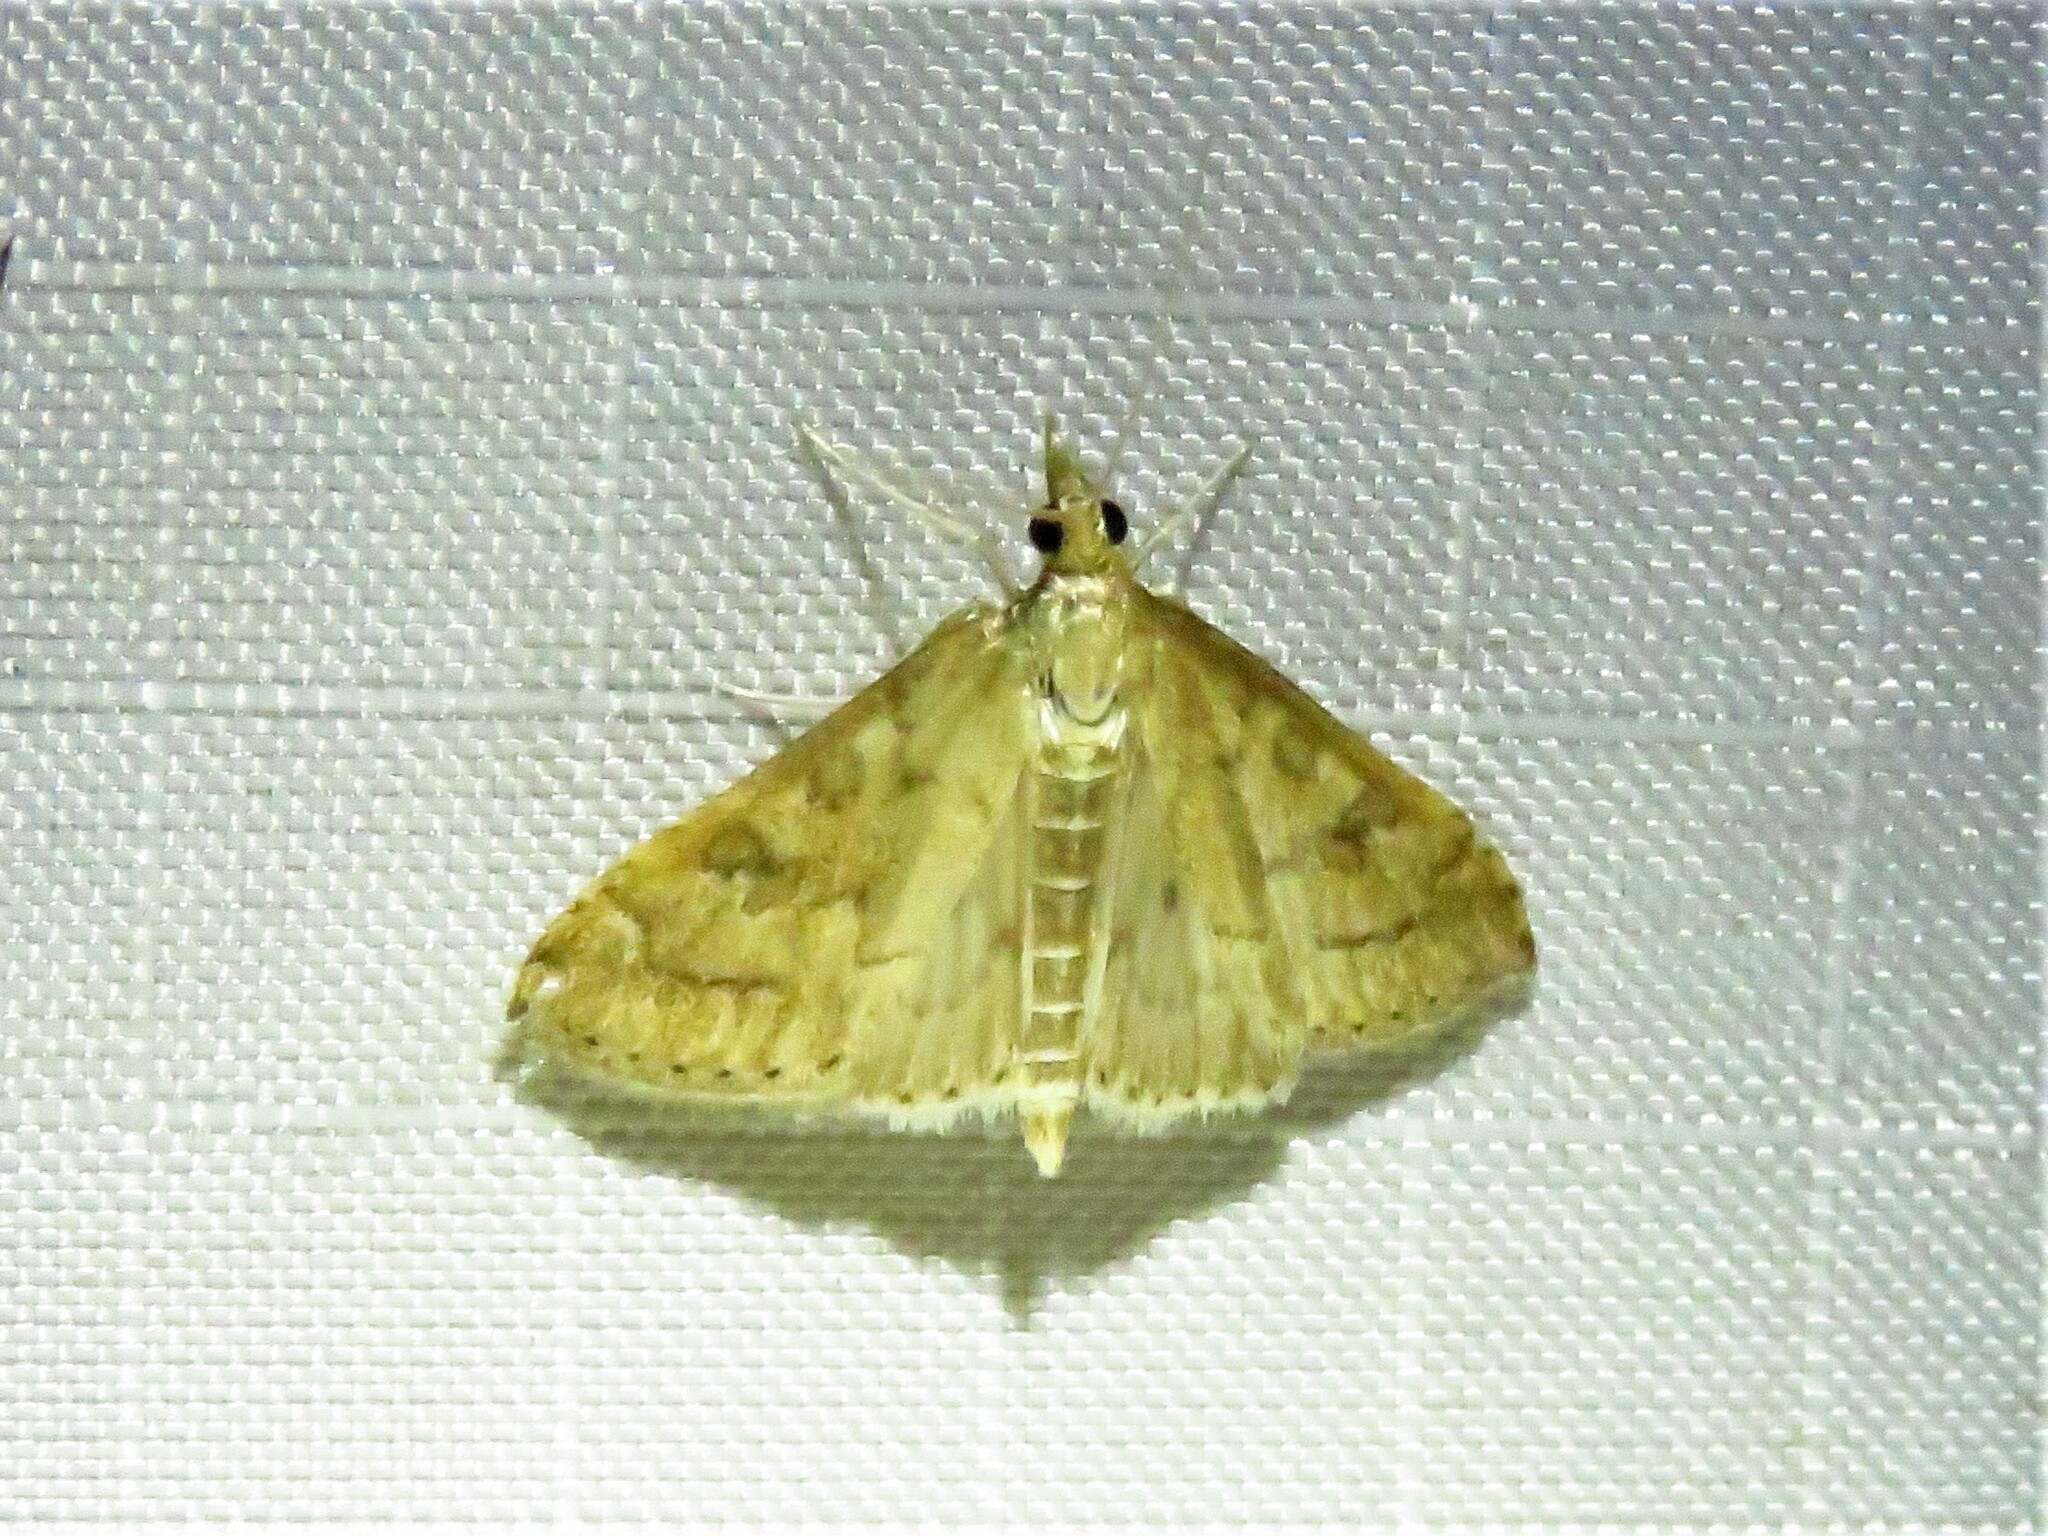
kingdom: Animalia
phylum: Arthropoda
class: Insecta
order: Lepidoptera
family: Crambidae
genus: Udea
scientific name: Udea rubigalis
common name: Celery leaftier moth
